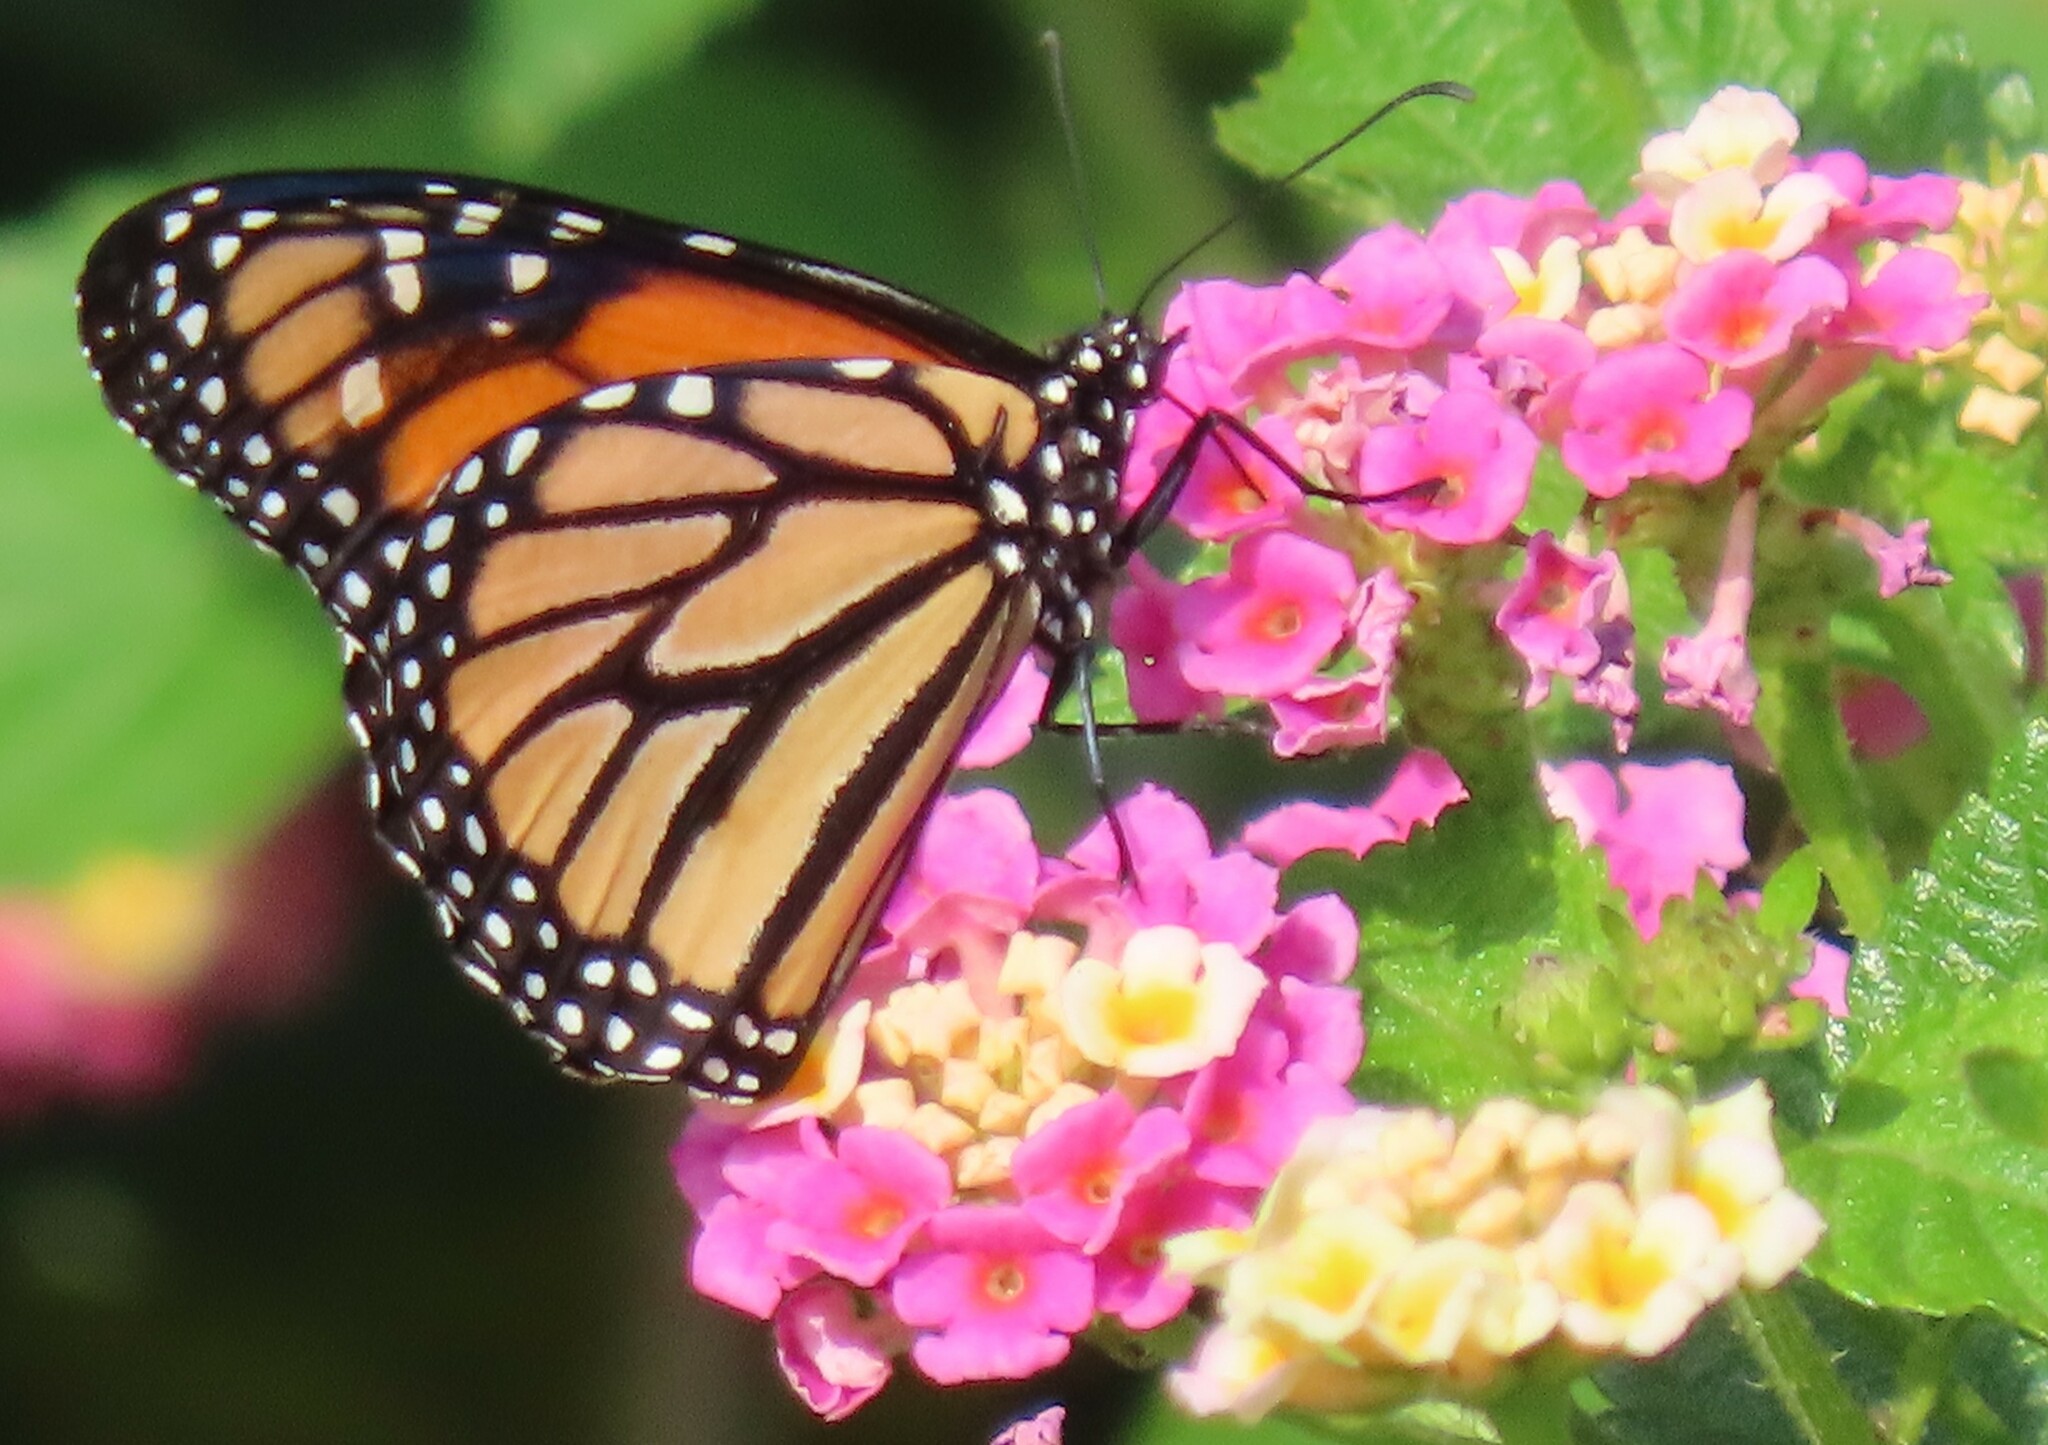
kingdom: Animalia
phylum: Arthropoda
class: Insecta
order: Lepidoptera
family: Nymphalidae
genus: Danaus
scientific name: Danaus plexippus
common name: Monarch
